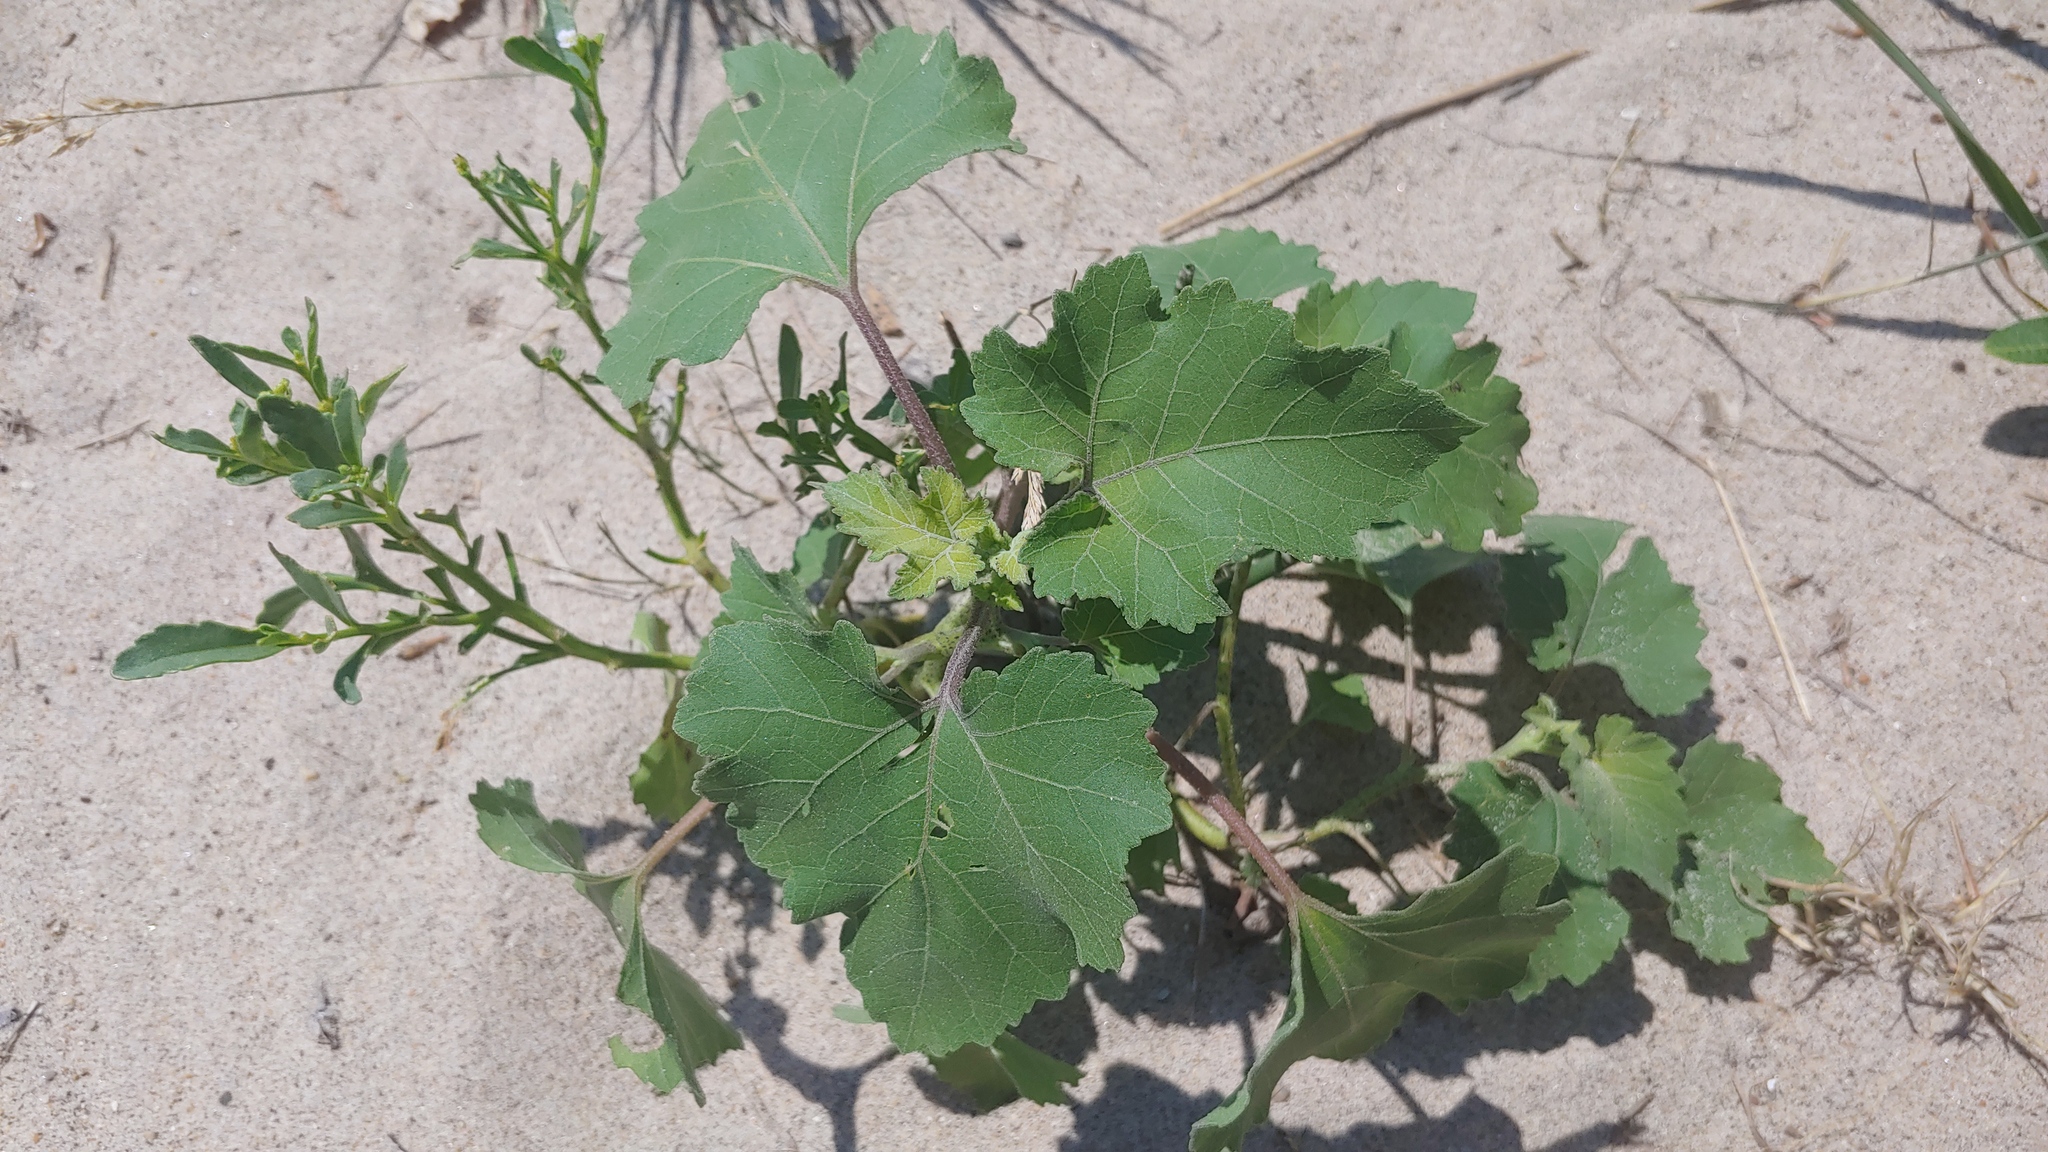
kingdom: Plantae
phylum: Tracheophyta
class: Magnoliopsida
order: Asterales
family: Asteraceae
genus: Xanthium
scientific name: Xanthium strumarium
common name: Rough cocklebur
